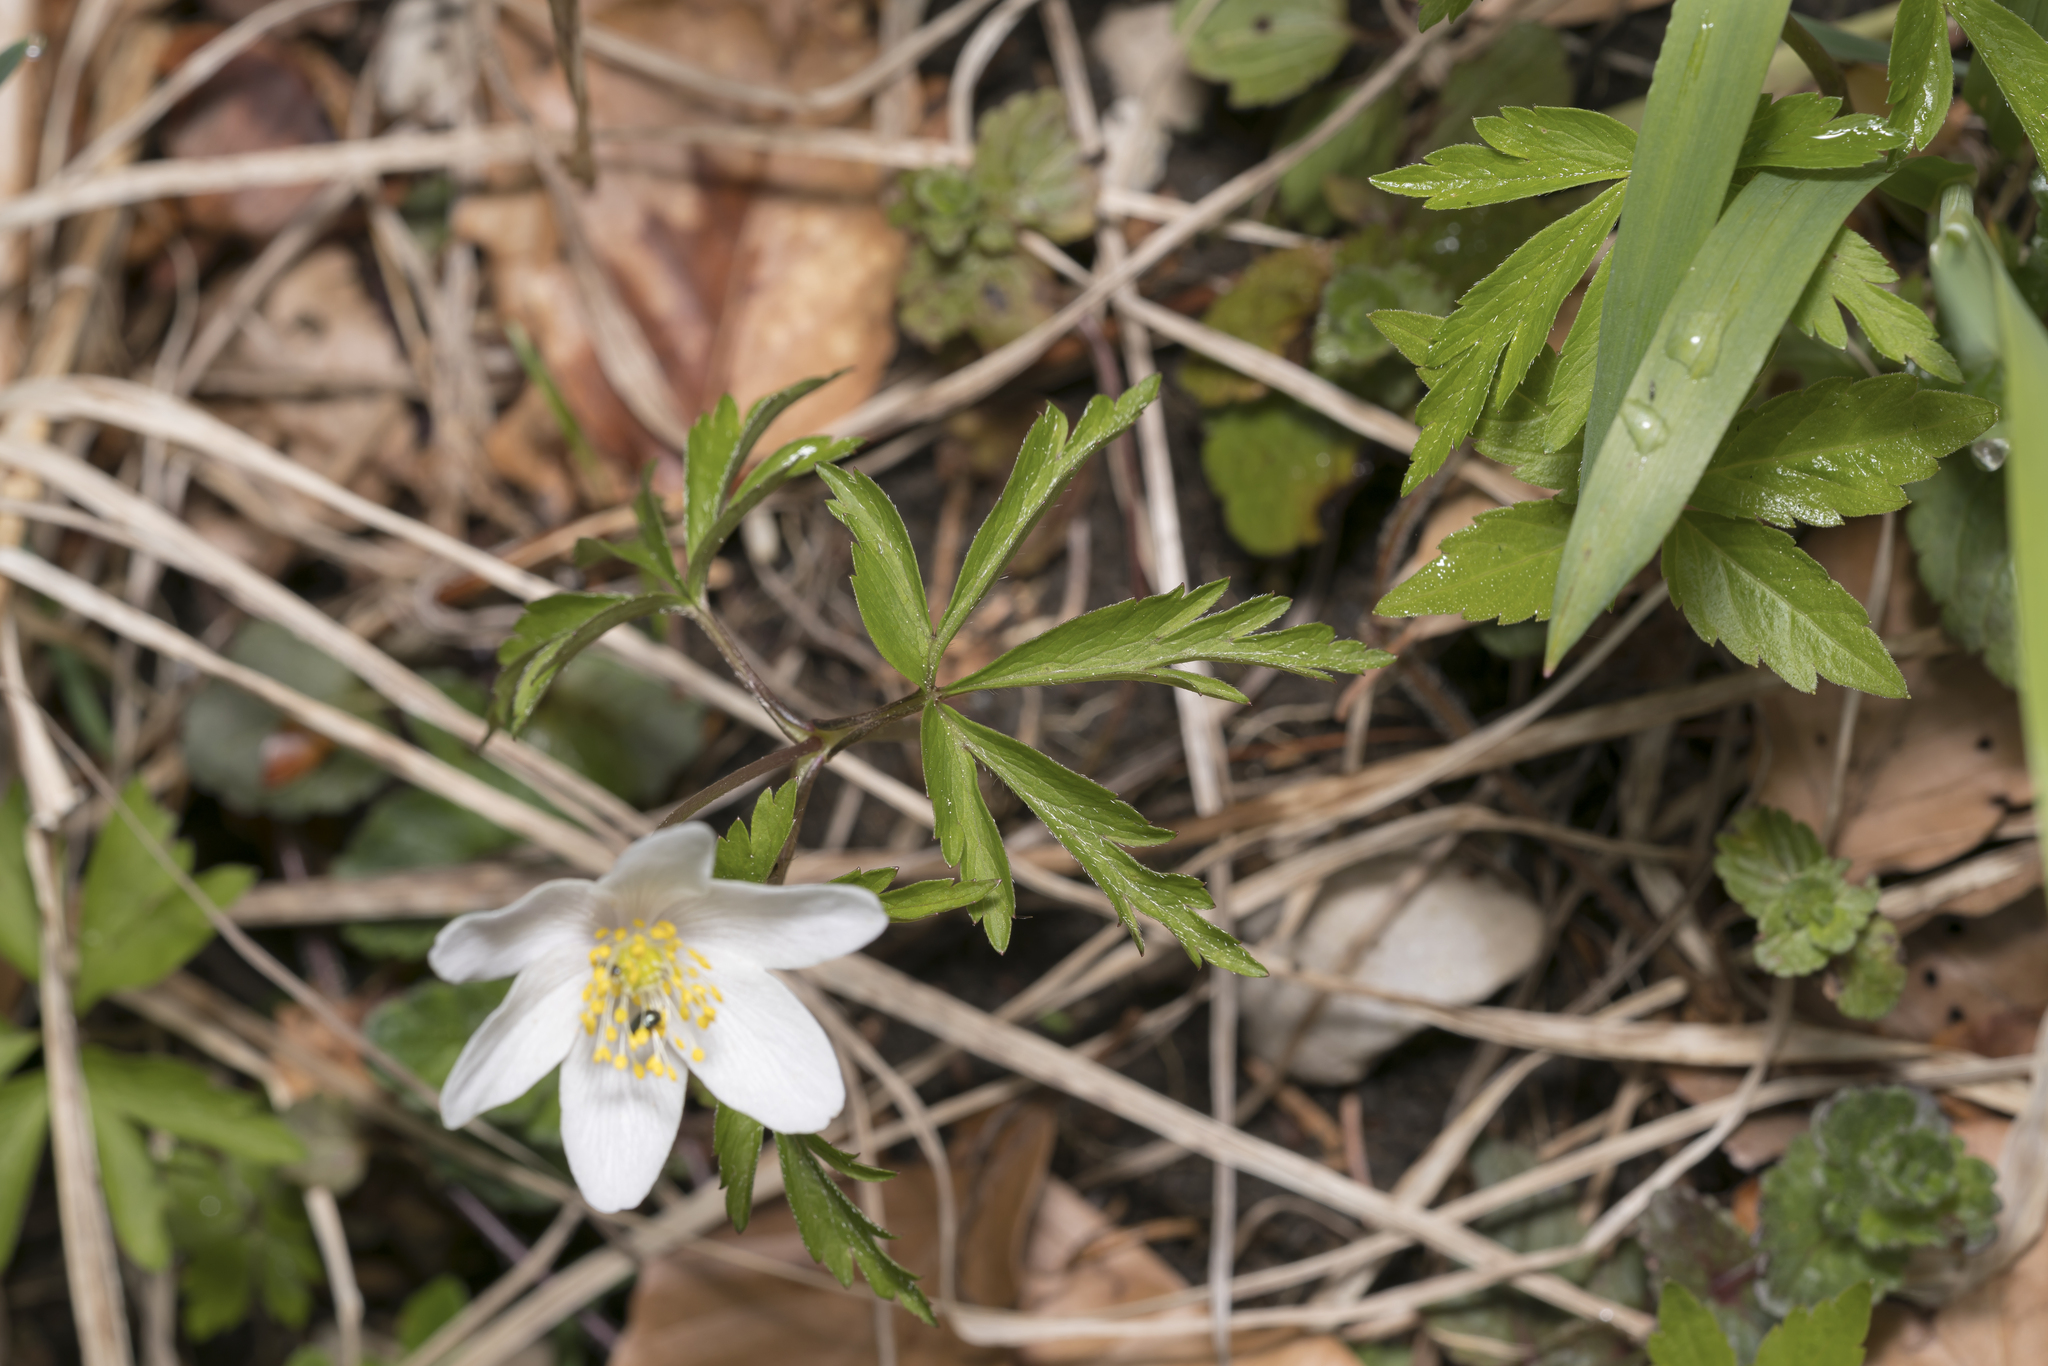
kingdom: Plantae
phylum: Tracheophyta
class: Magnoliopsida
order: Ranunculales
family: Ranunculaceae
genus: Anemone
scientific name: Anemone nemorosa
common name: Wood anemone
